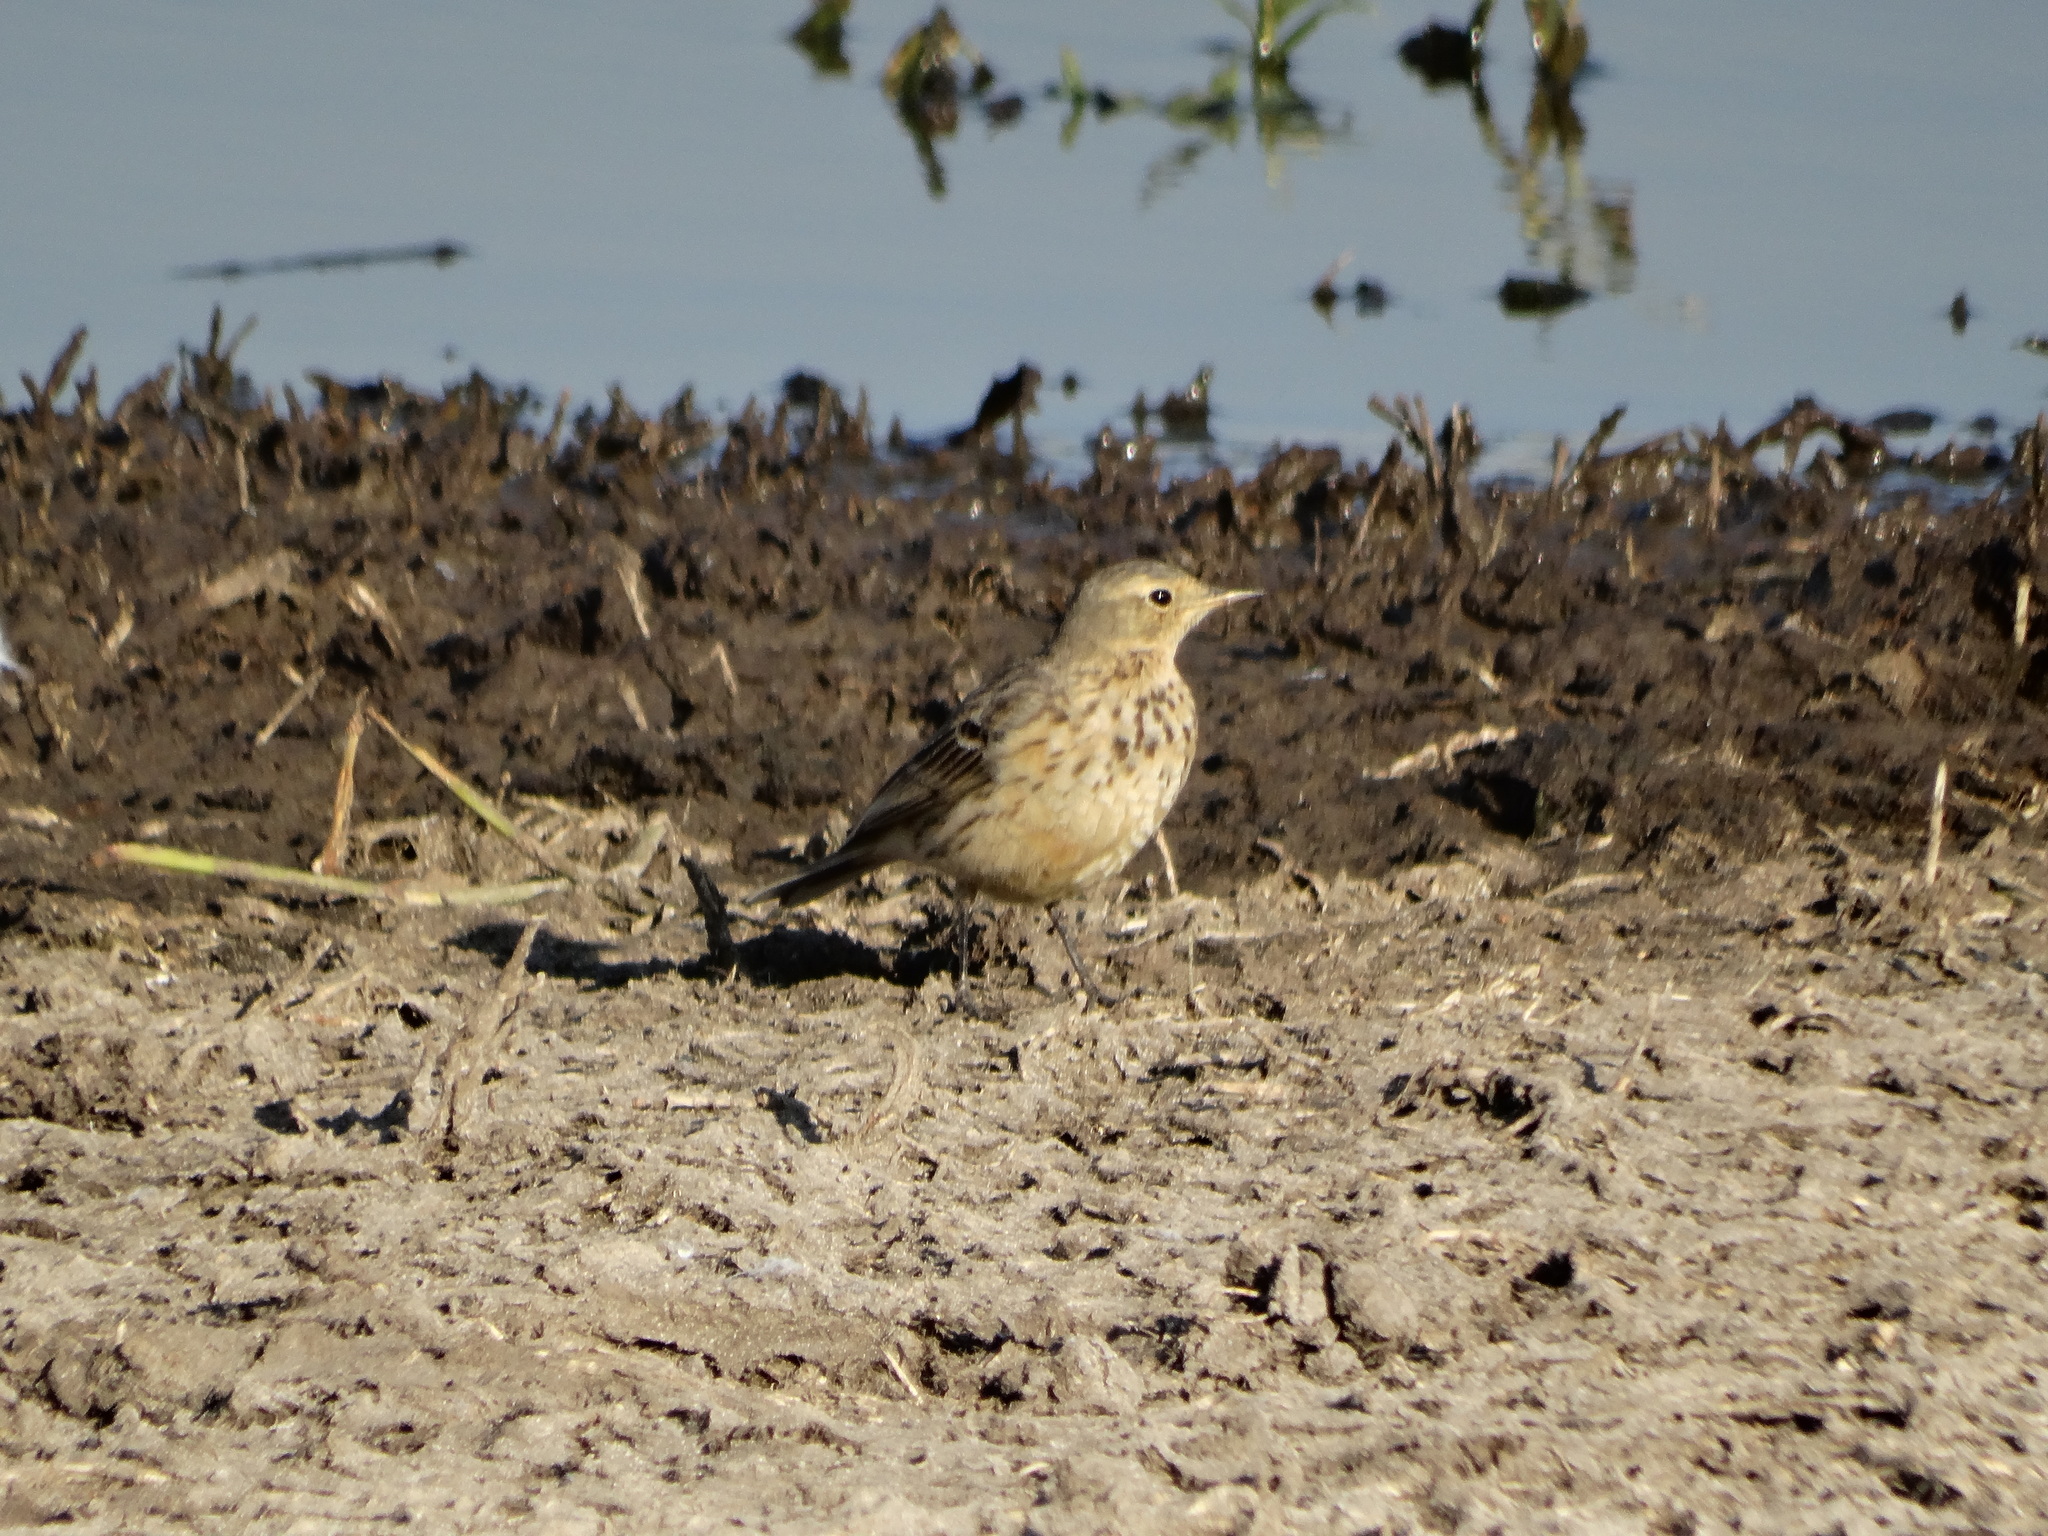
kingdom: Animalia
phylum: Chordata
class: Aves
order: Passeriformes
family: Motacillidae
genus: Anthus
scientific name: Anthus rubescens
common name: Buff-bellied pipit
